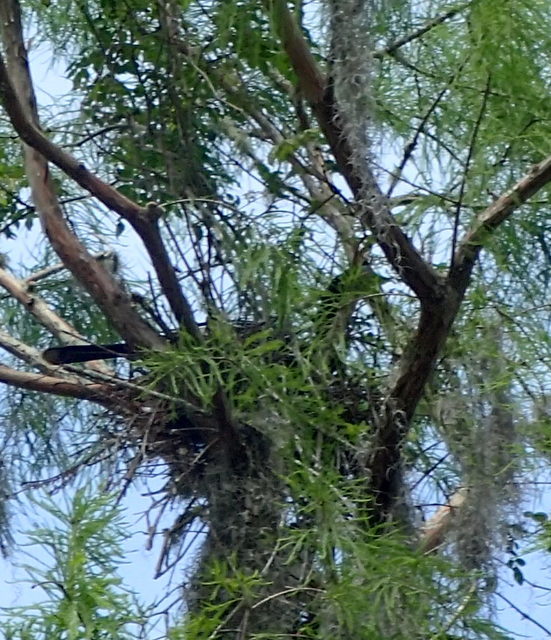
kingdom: Animalia
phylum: Chordata
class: Aves
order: Suliformes
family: Anhingidae
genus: Anhinga
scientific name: Anhinga anhinga
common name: Anhinga
